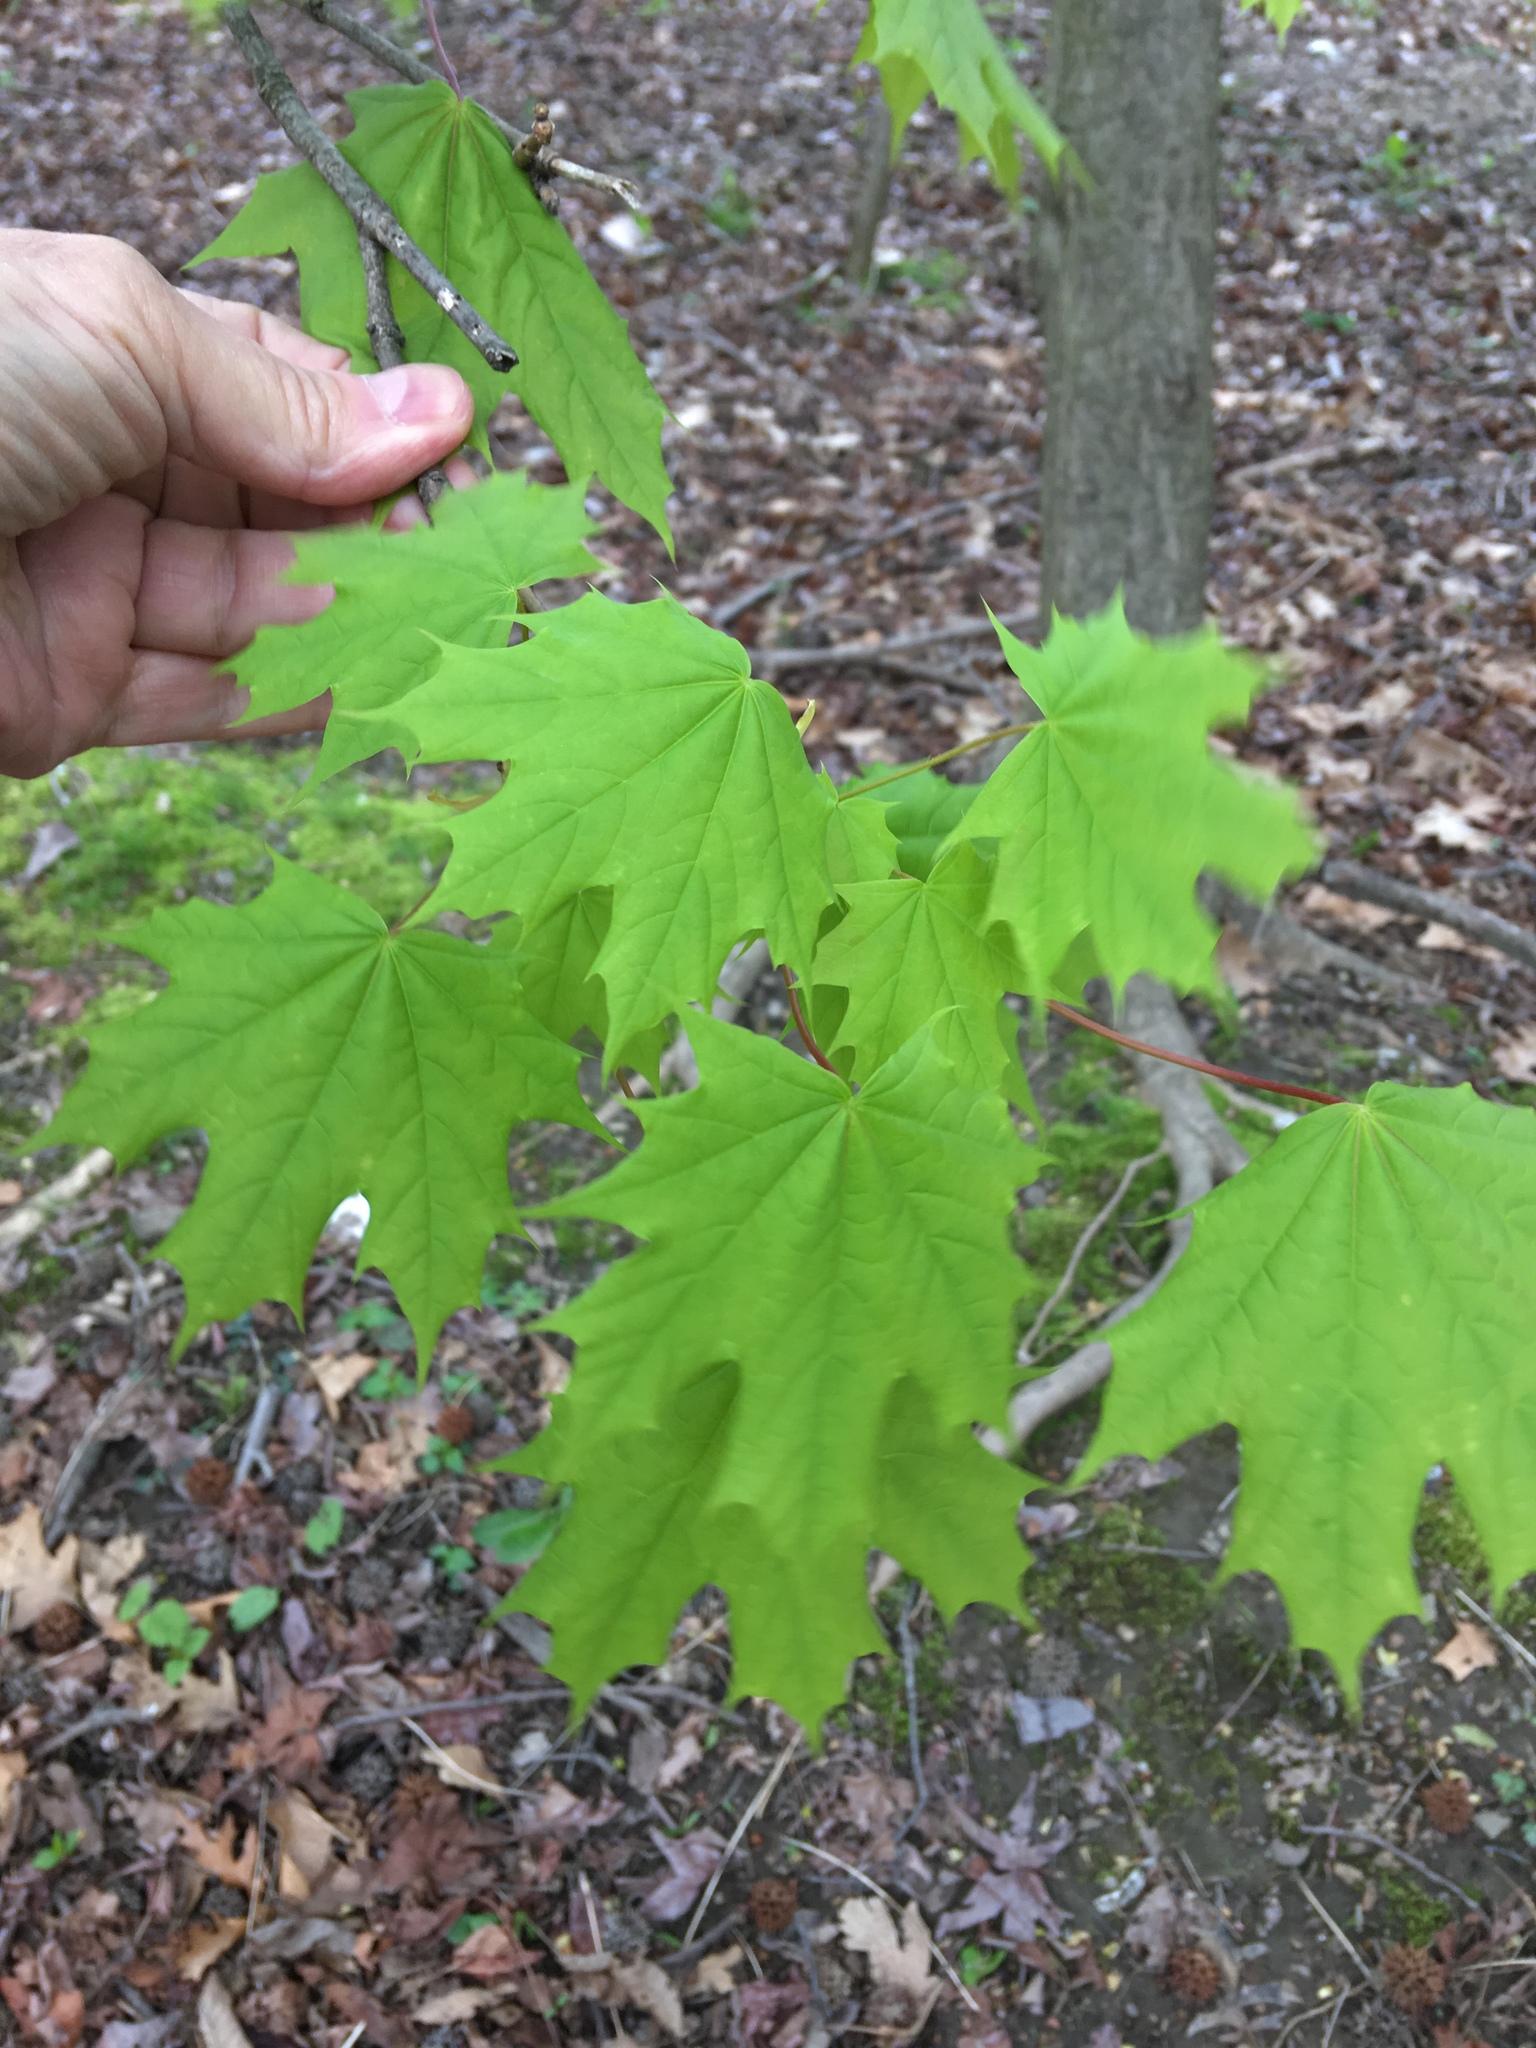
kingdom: Plantae
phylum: Tracheophyta
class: Magnoliopsida
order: Sapindales
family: Sapindaceae
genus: Acer
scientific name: Acer saccharum
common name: Sugar maple
